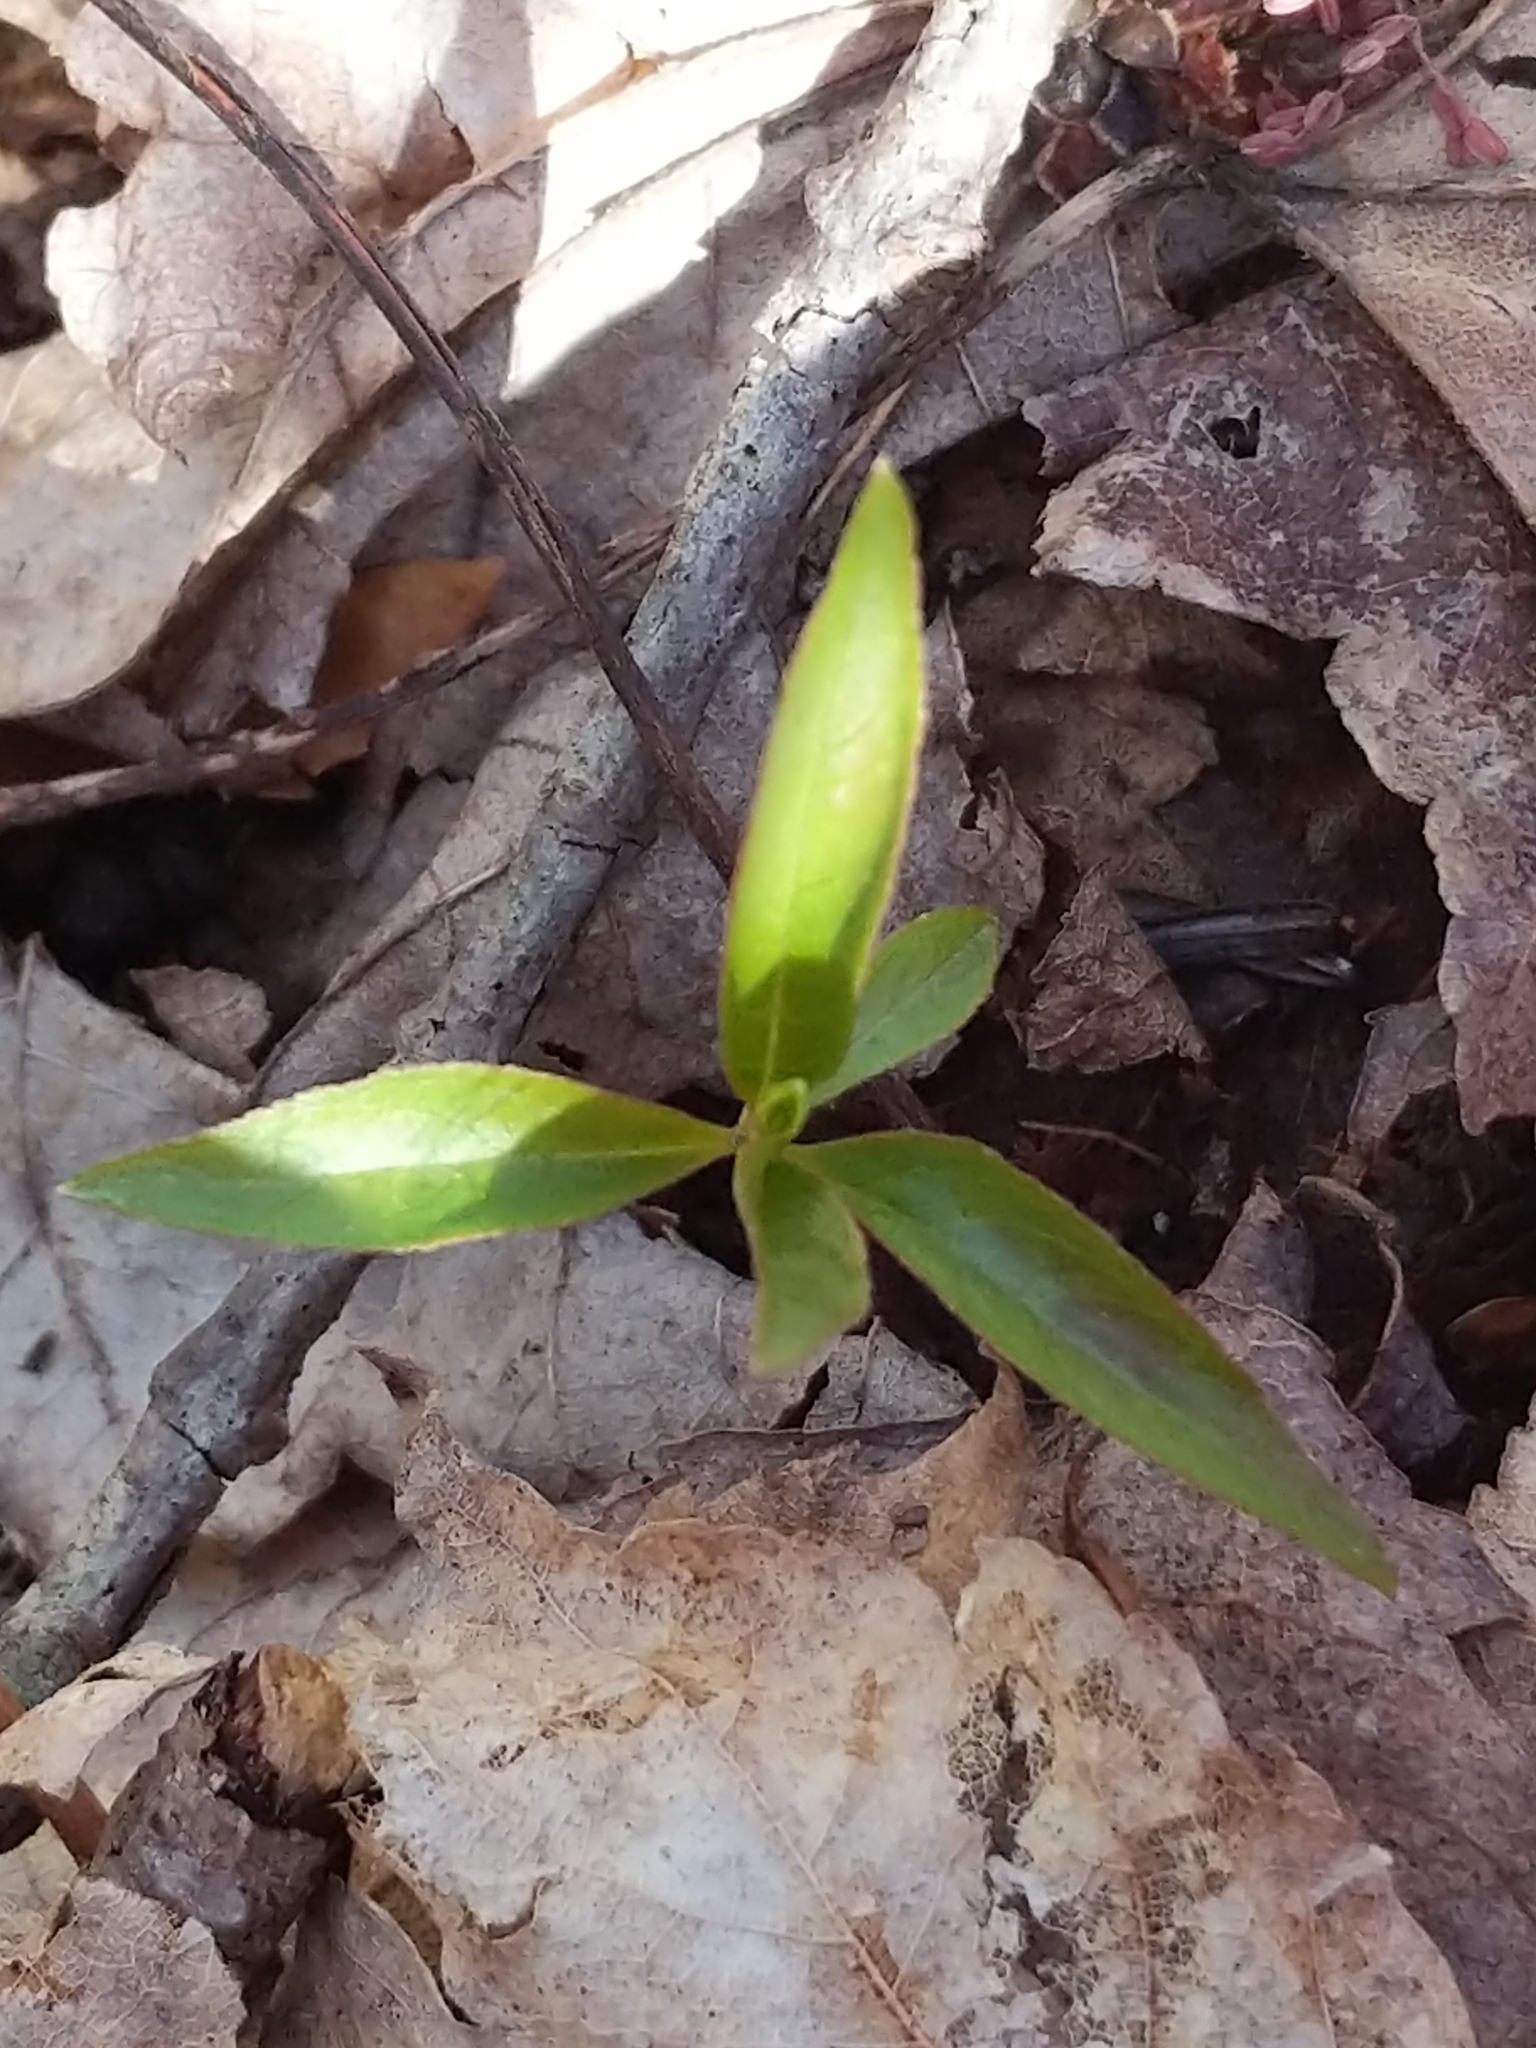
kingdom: Plantae
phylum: Tracheophyta
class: Magnoliopsida
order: Ericales
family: Primulaceae
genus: Lysimachia
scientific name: Lysimachia borealis
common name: American starflower
